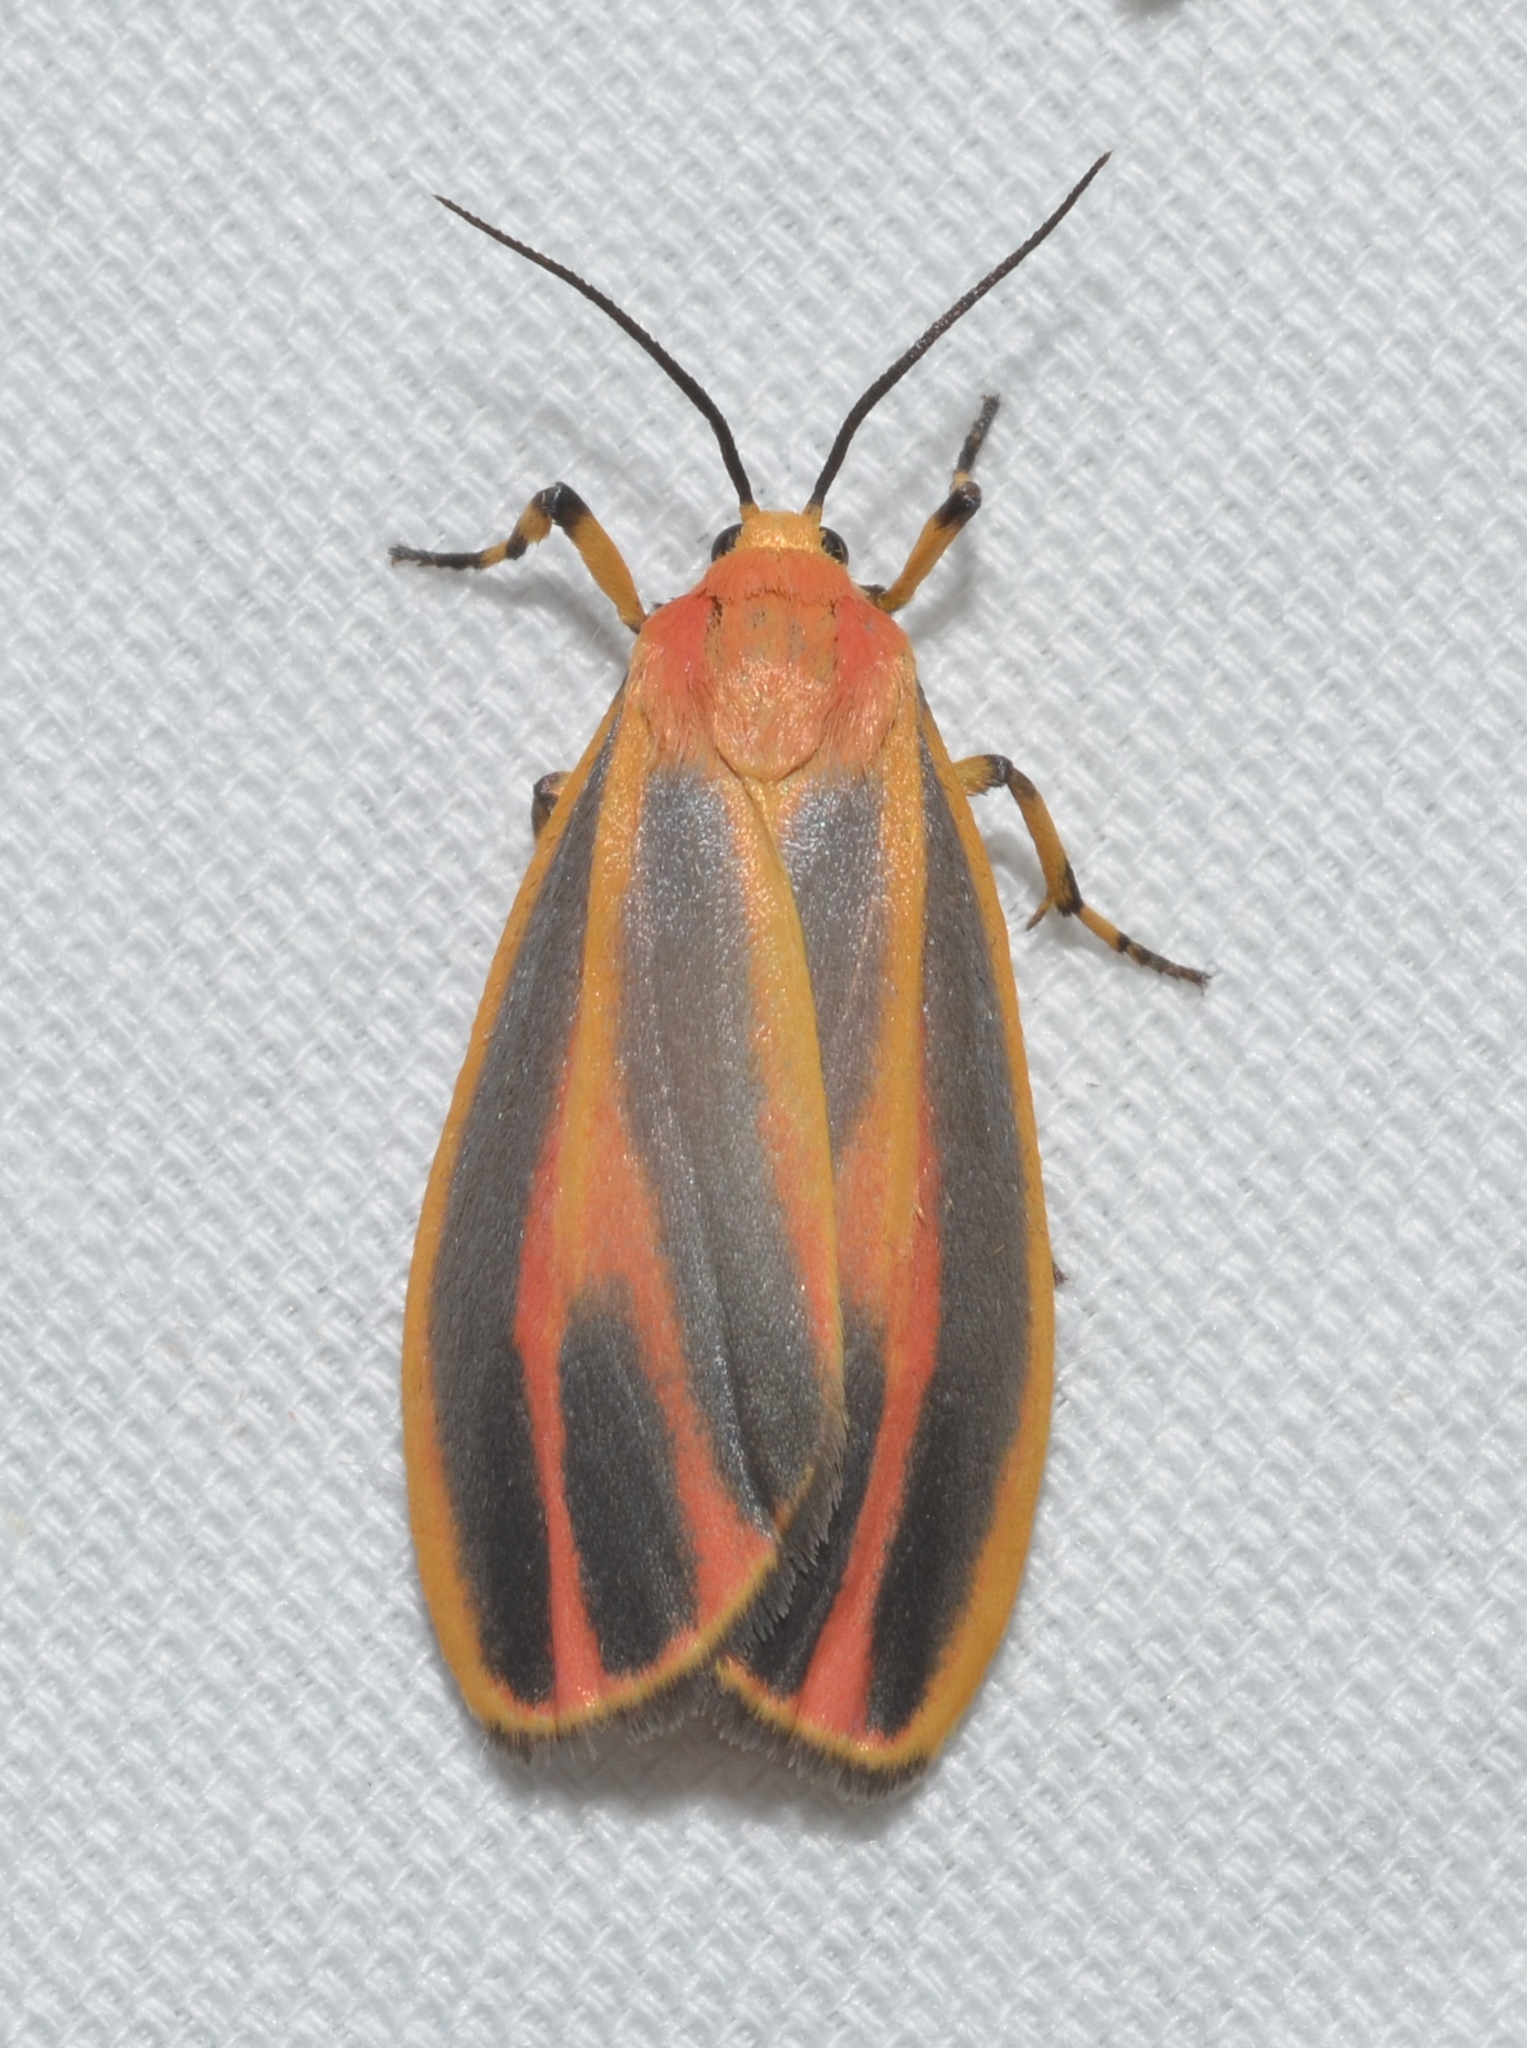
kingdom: Animalia
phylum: Arthropoda
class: Insecta
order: Lepidoptera
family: Erebidae
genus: Hypoprepia
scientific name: Hypoprepia fucosa
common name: Painted lichen moth
